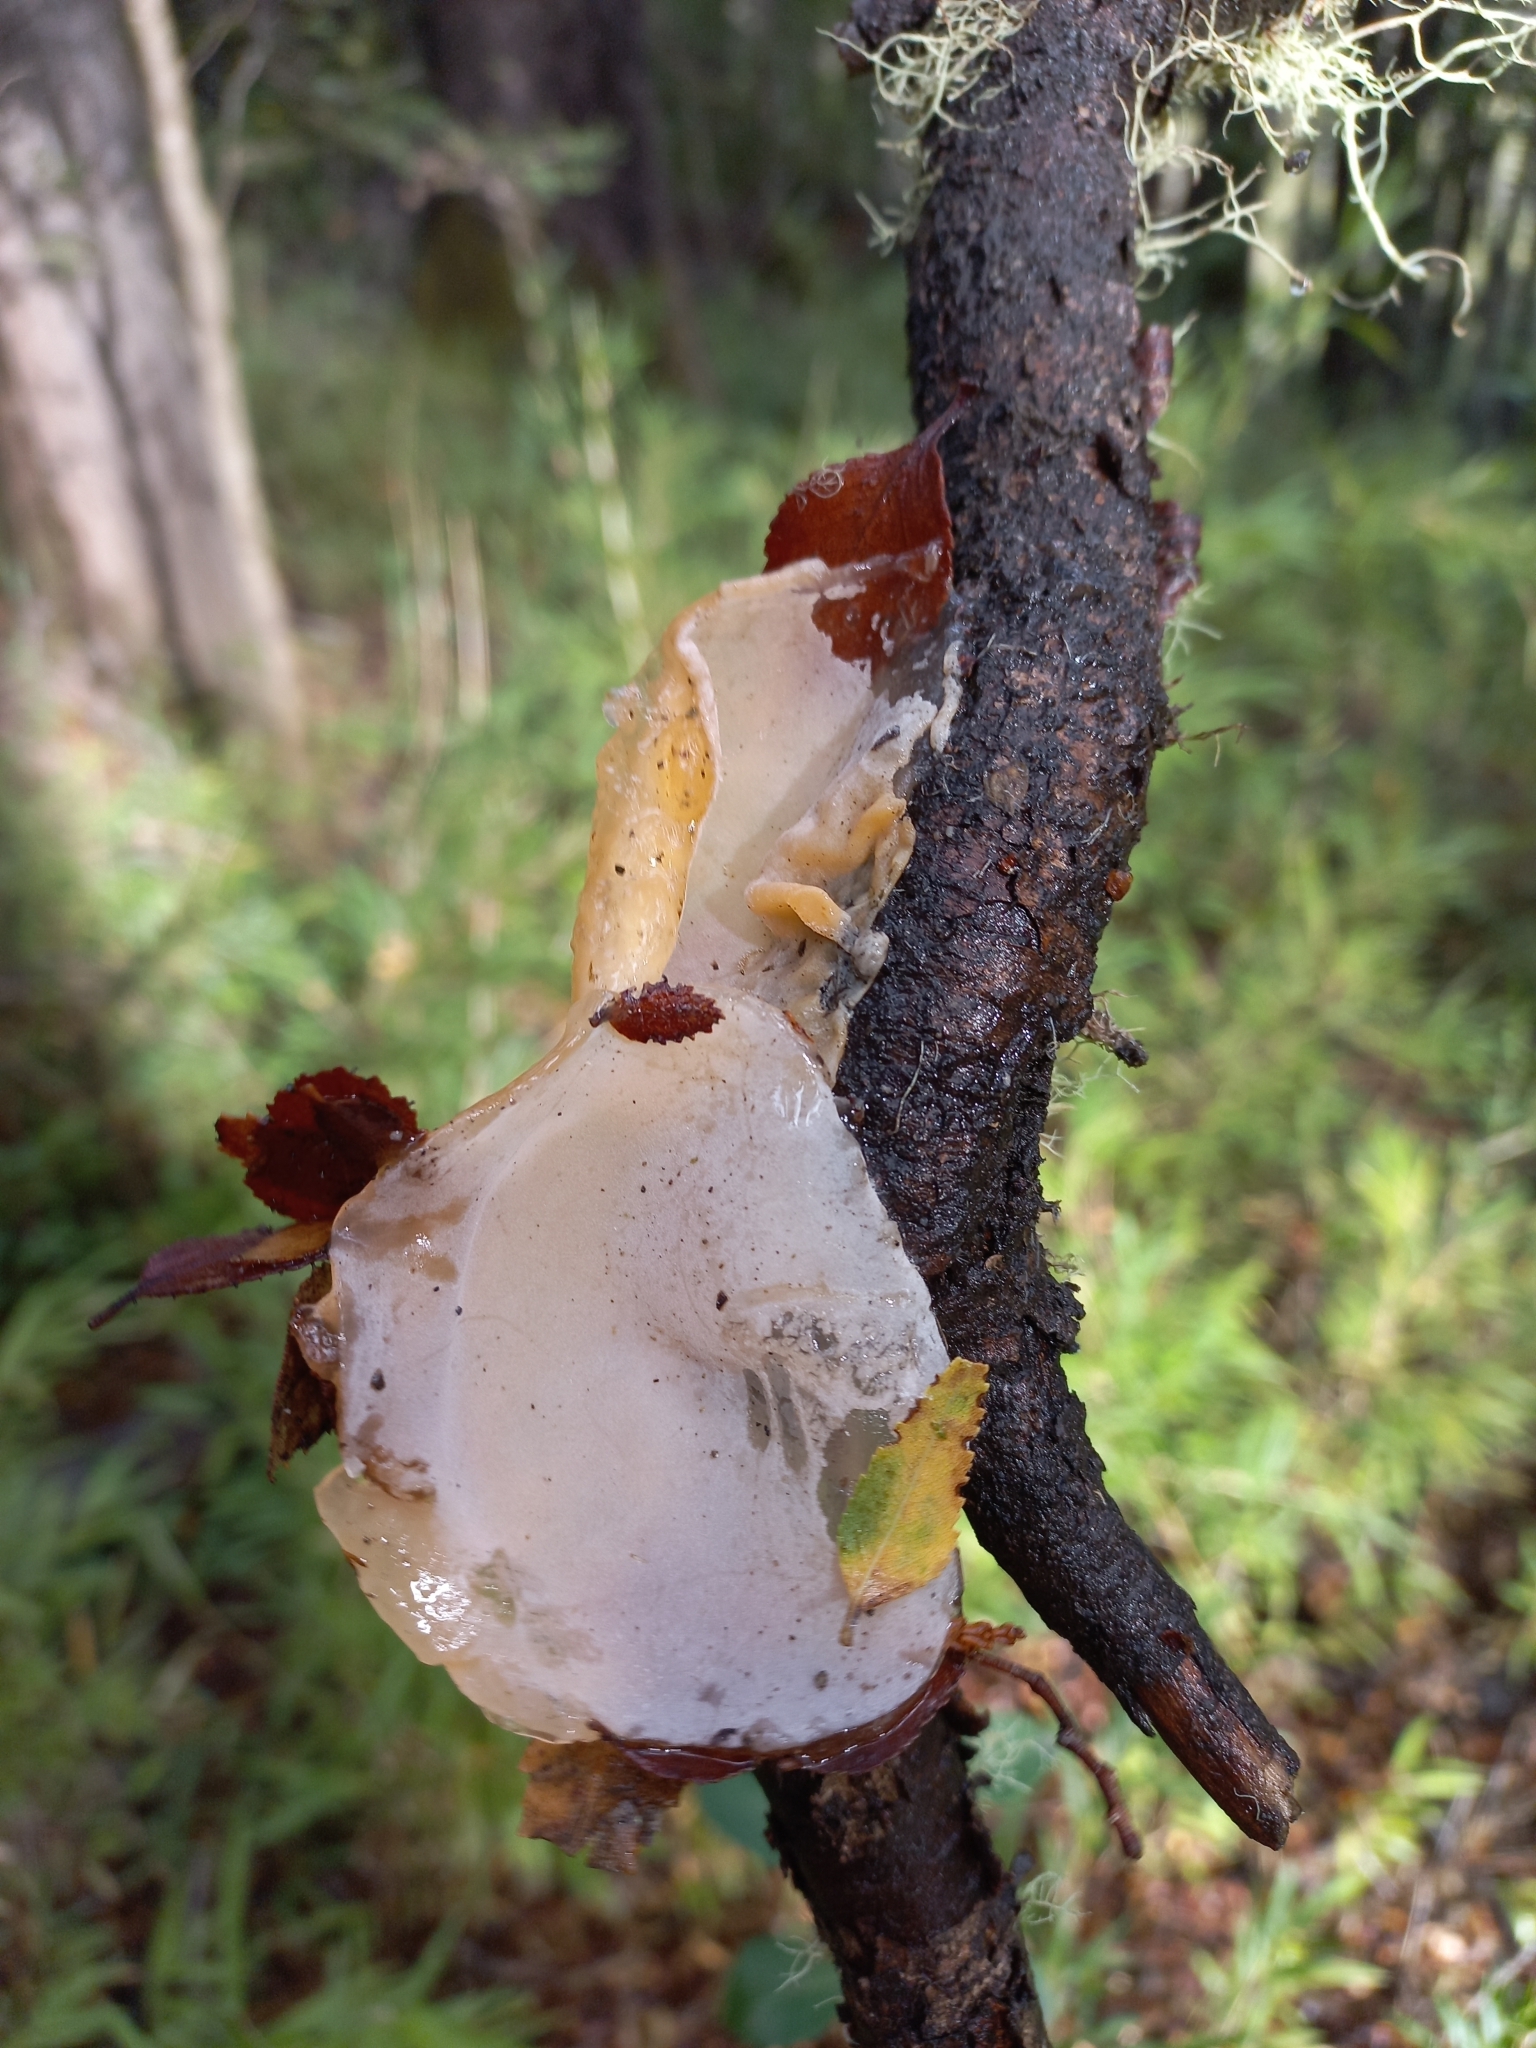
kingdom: Fungi
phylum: Basidiomycota
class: Agaricomycetes
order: Russulales
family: Stereaceae
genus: Aleurodiscus
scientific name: Aleurodiscus vitellinus
